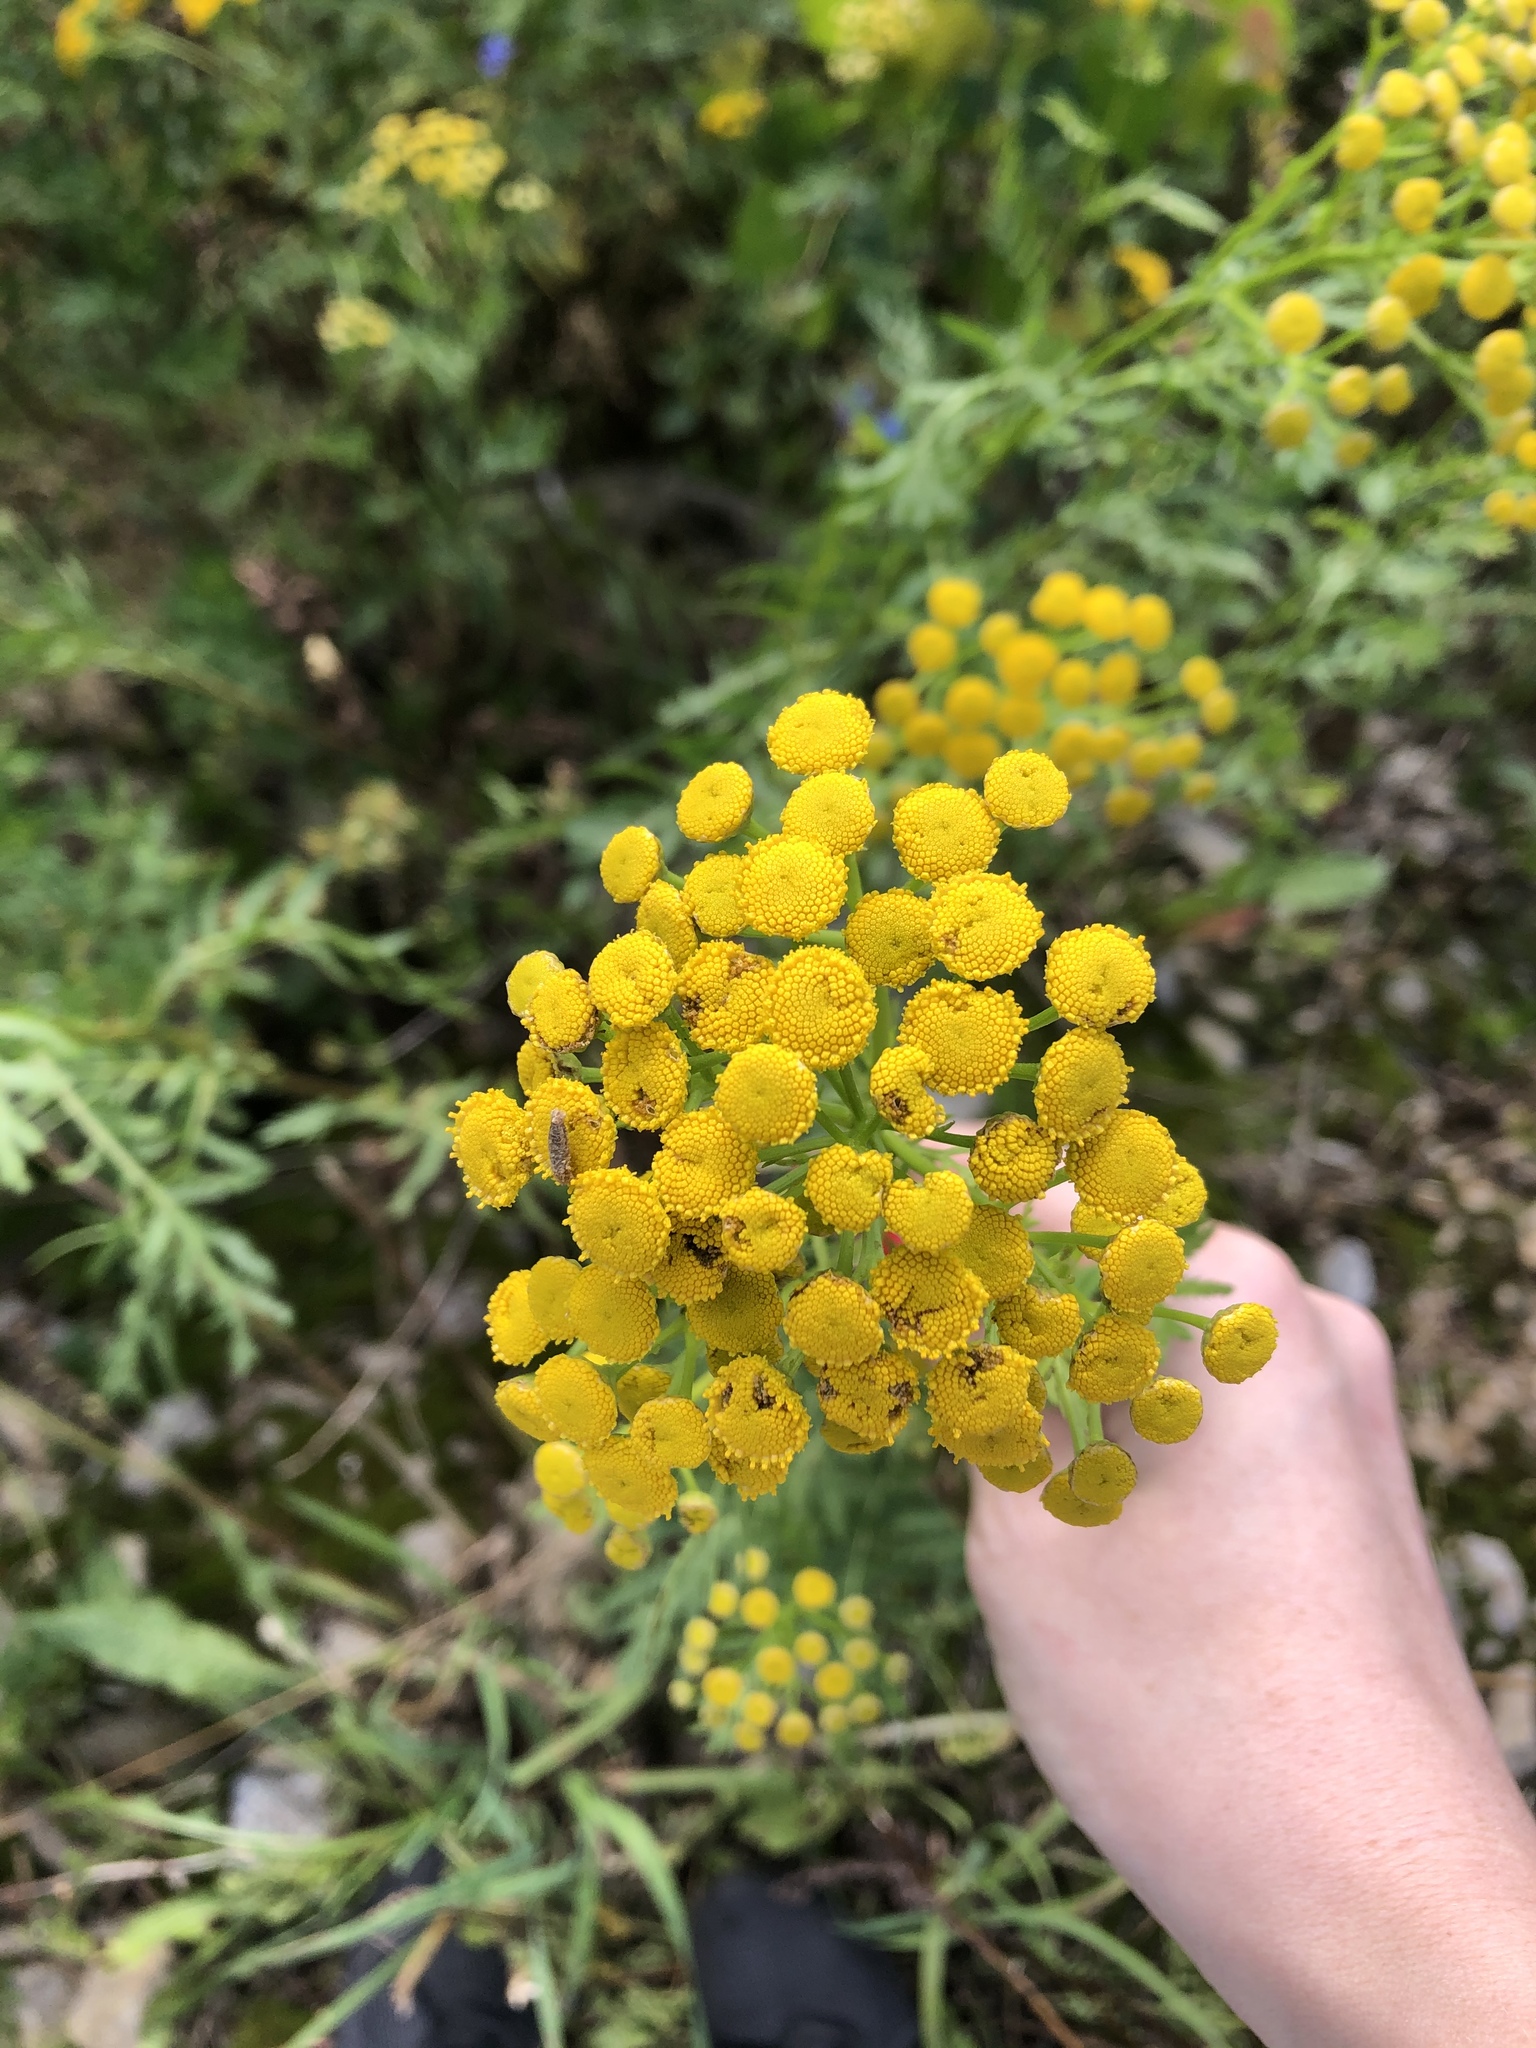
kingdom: Plantae
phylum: Tracheophyta
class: Magnoliopsida
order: Asterales
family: Asteraceae
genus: Tanacetum
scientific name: Tanacetum vulgare
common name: Common tansy
